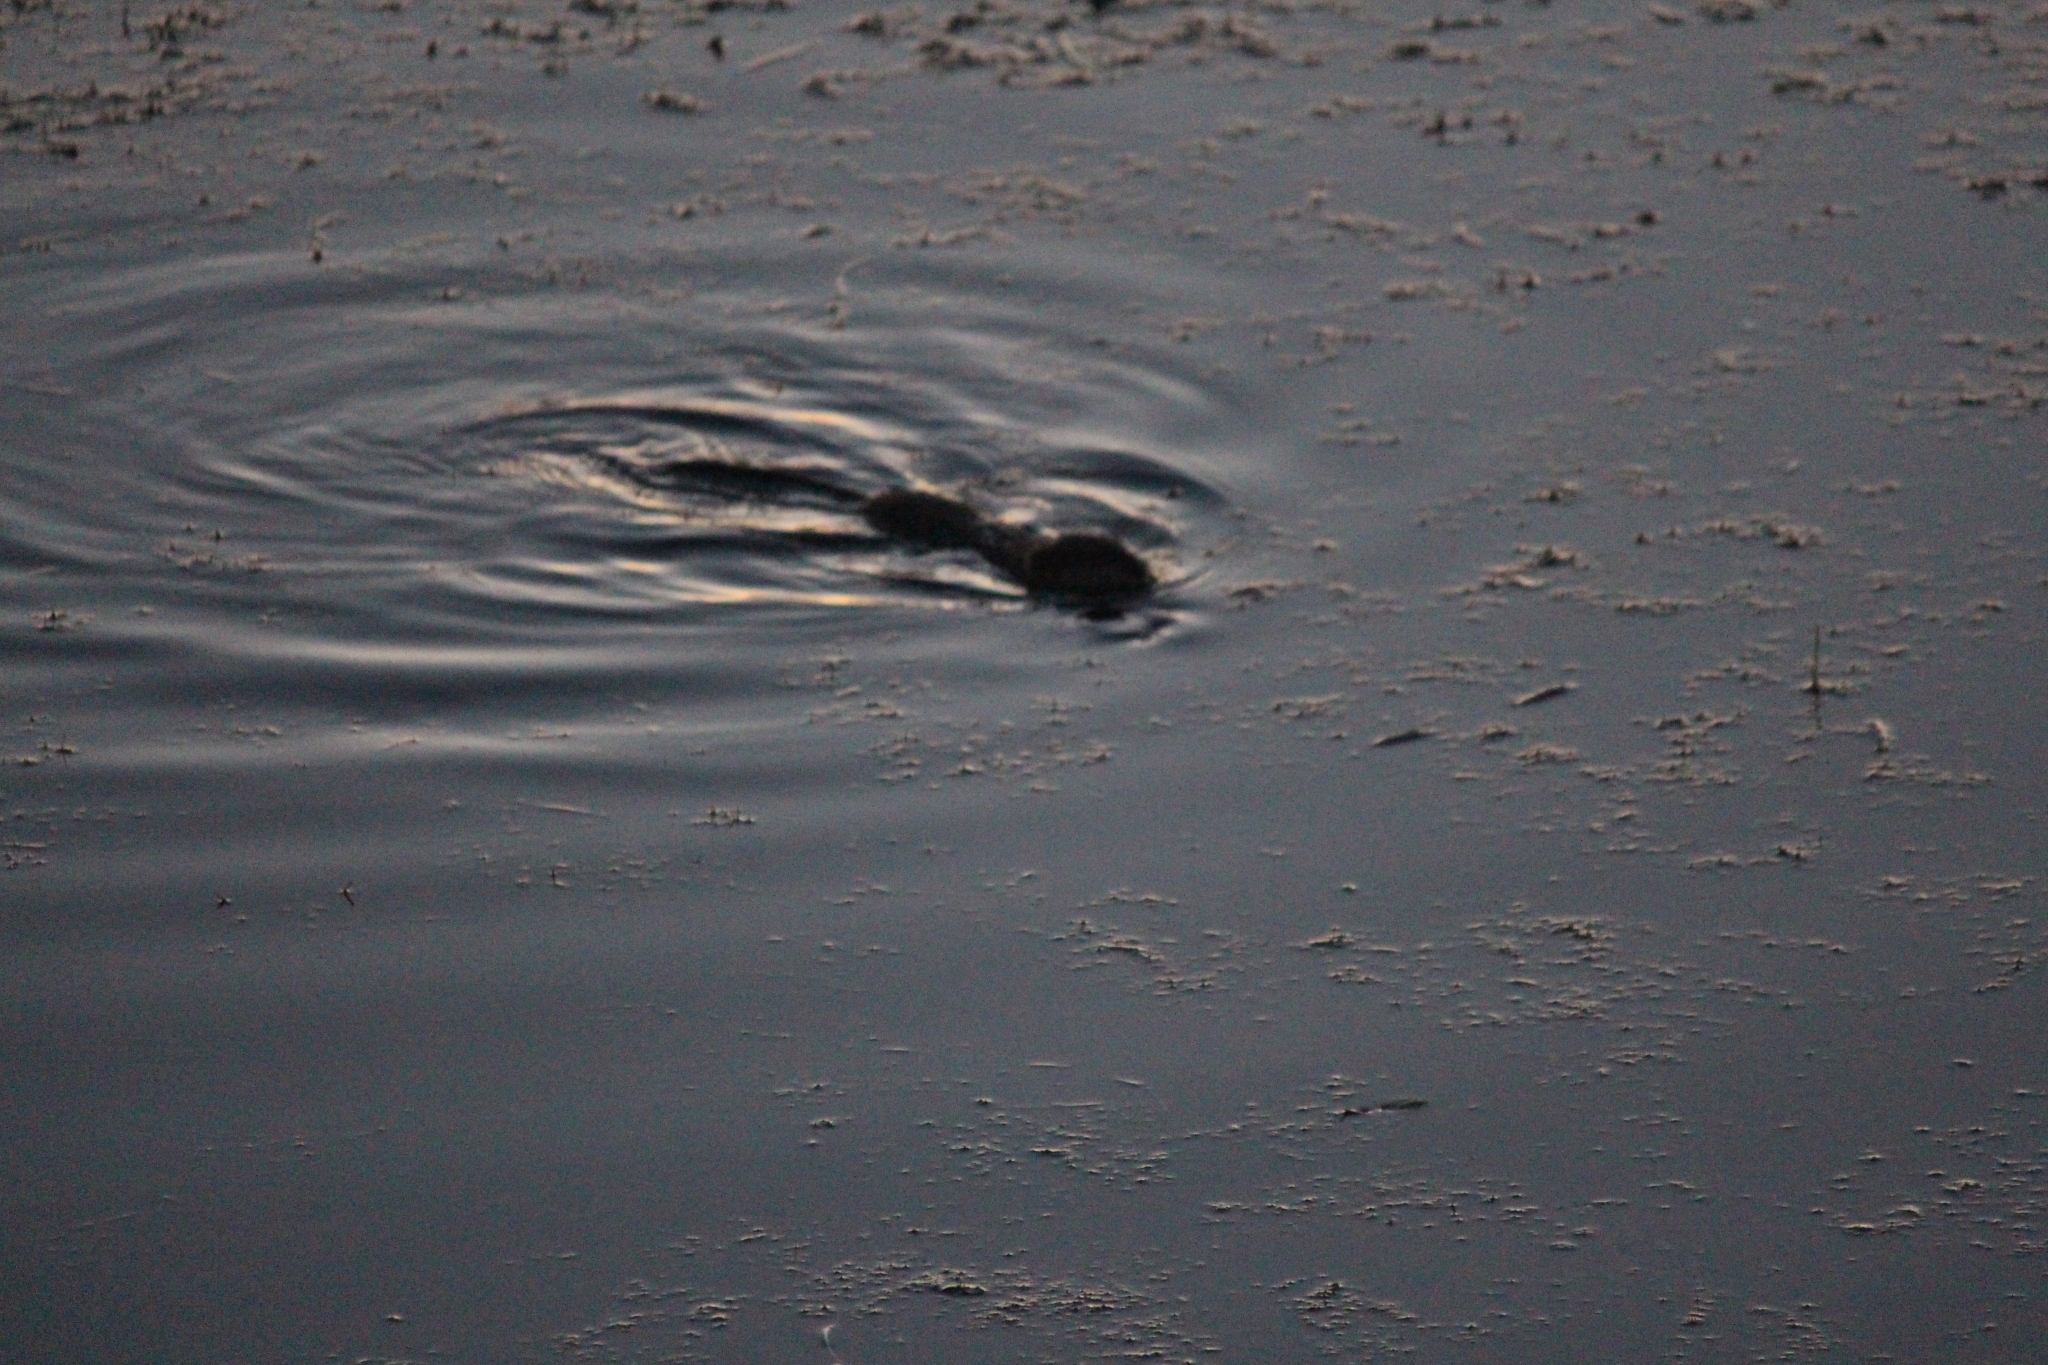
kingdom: Animalia
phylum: Chordata
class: Mammalia
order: Rodentia
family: Cricetidae
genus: Ondatra
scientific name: Ondatra zibethicus
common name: Muskrat
